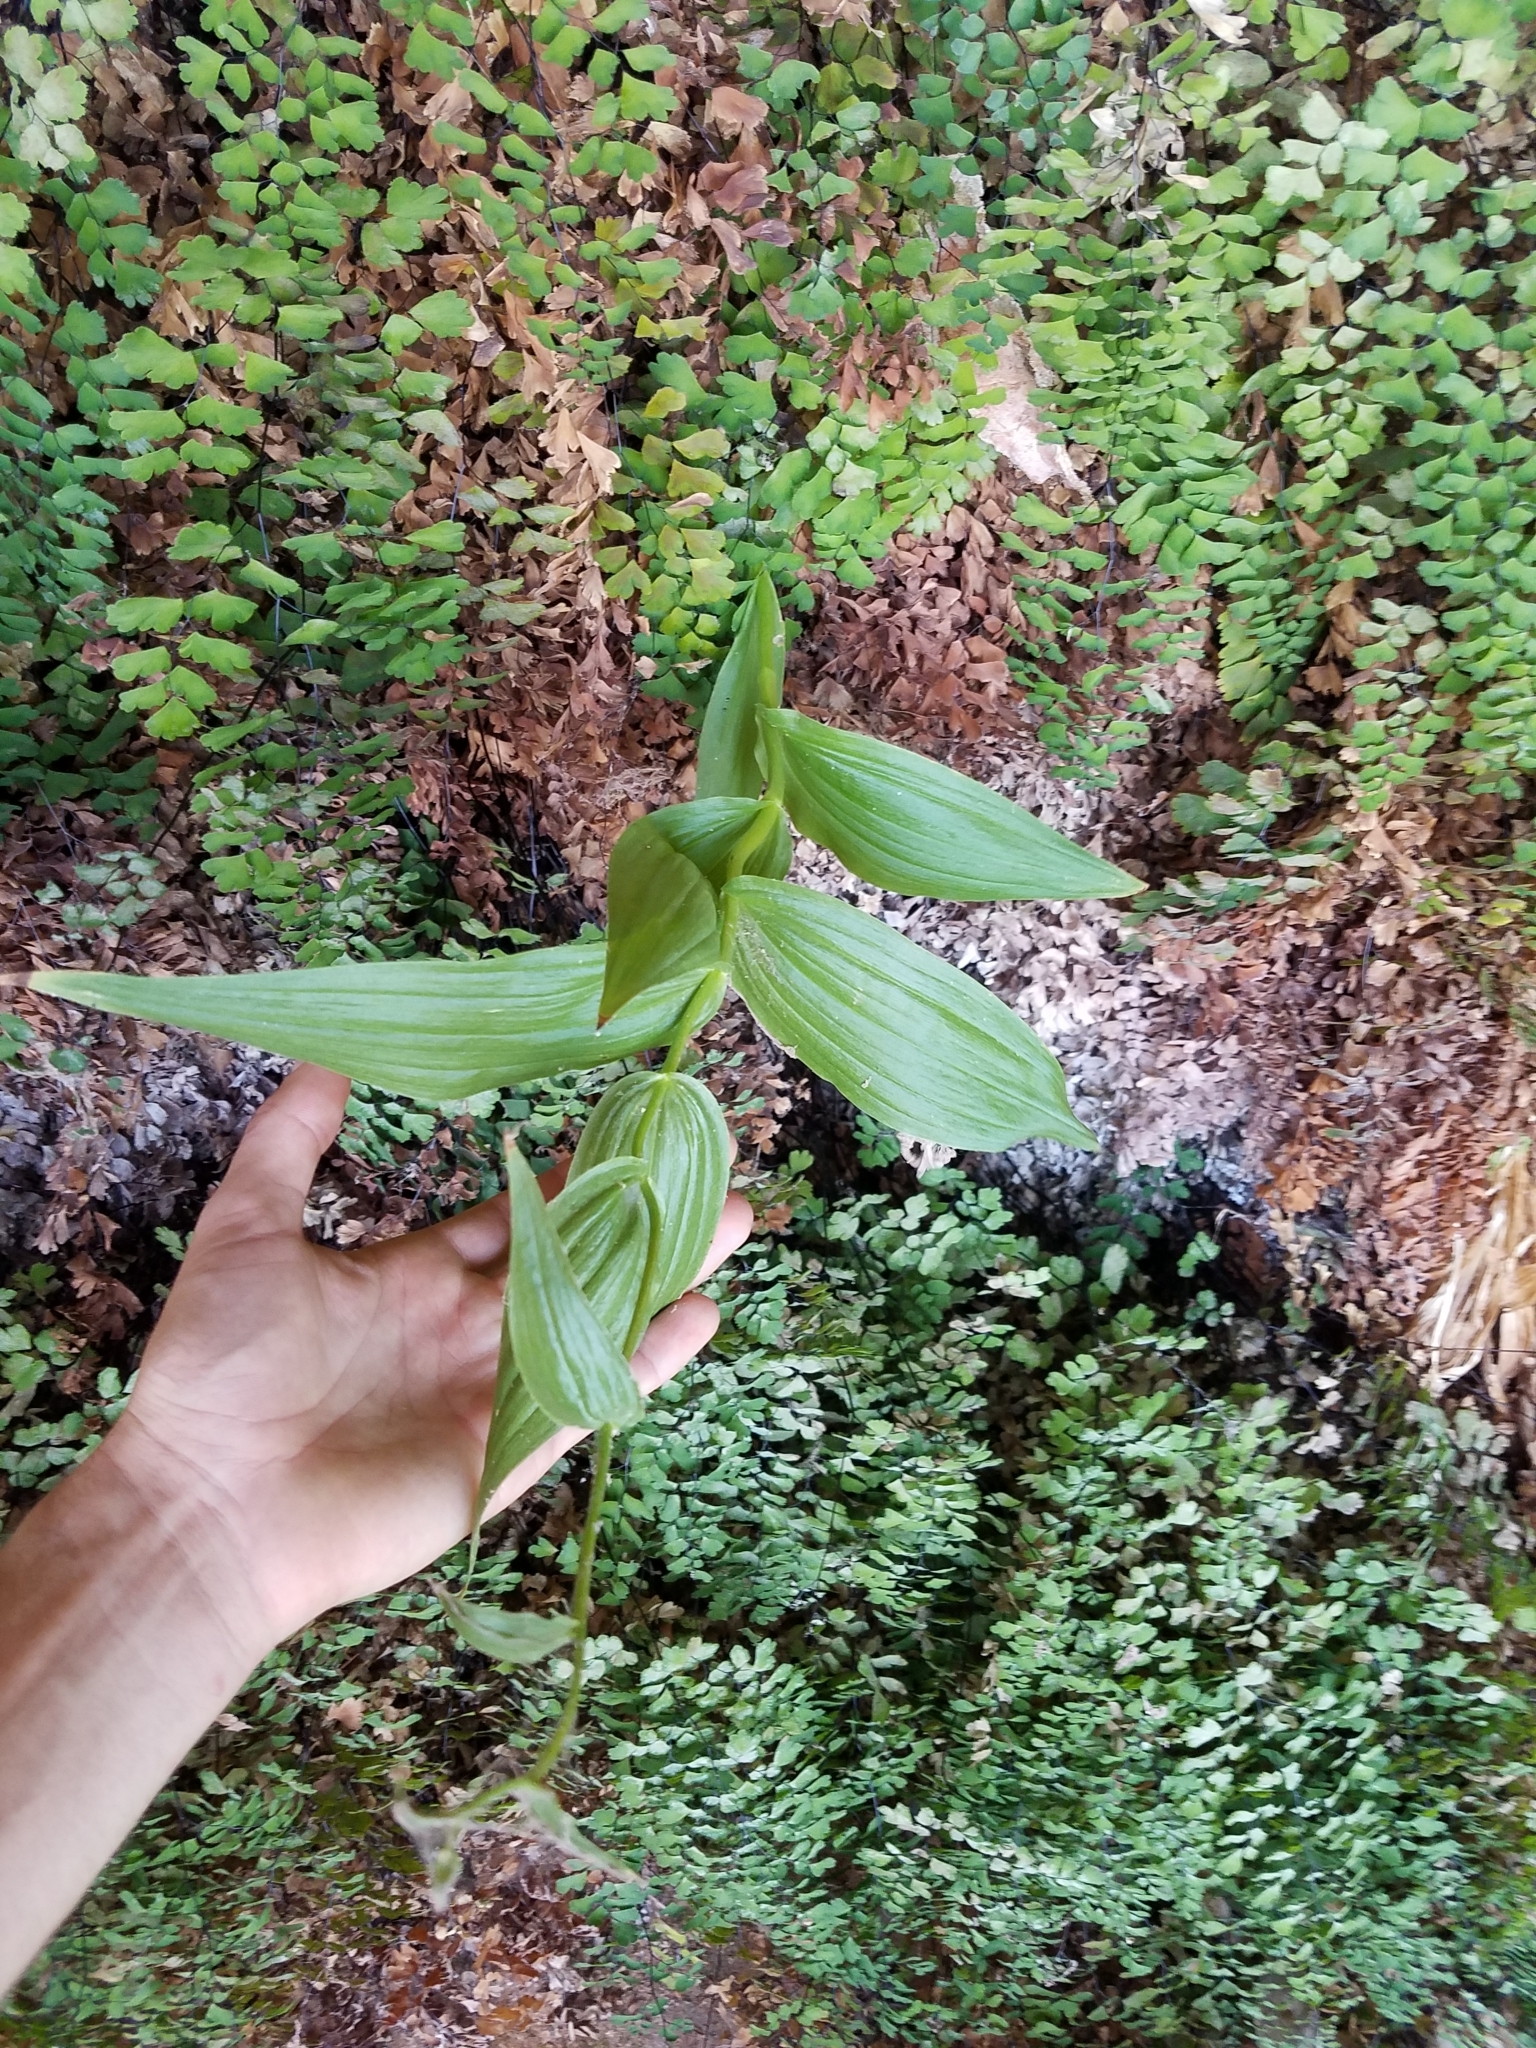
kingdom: Plantae
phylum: Tracheophyta
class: Liliopsida
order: Asparagales
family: Orchidaceae
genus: Epipactis
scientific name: Epipactis gigantea
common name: Chatterbox
